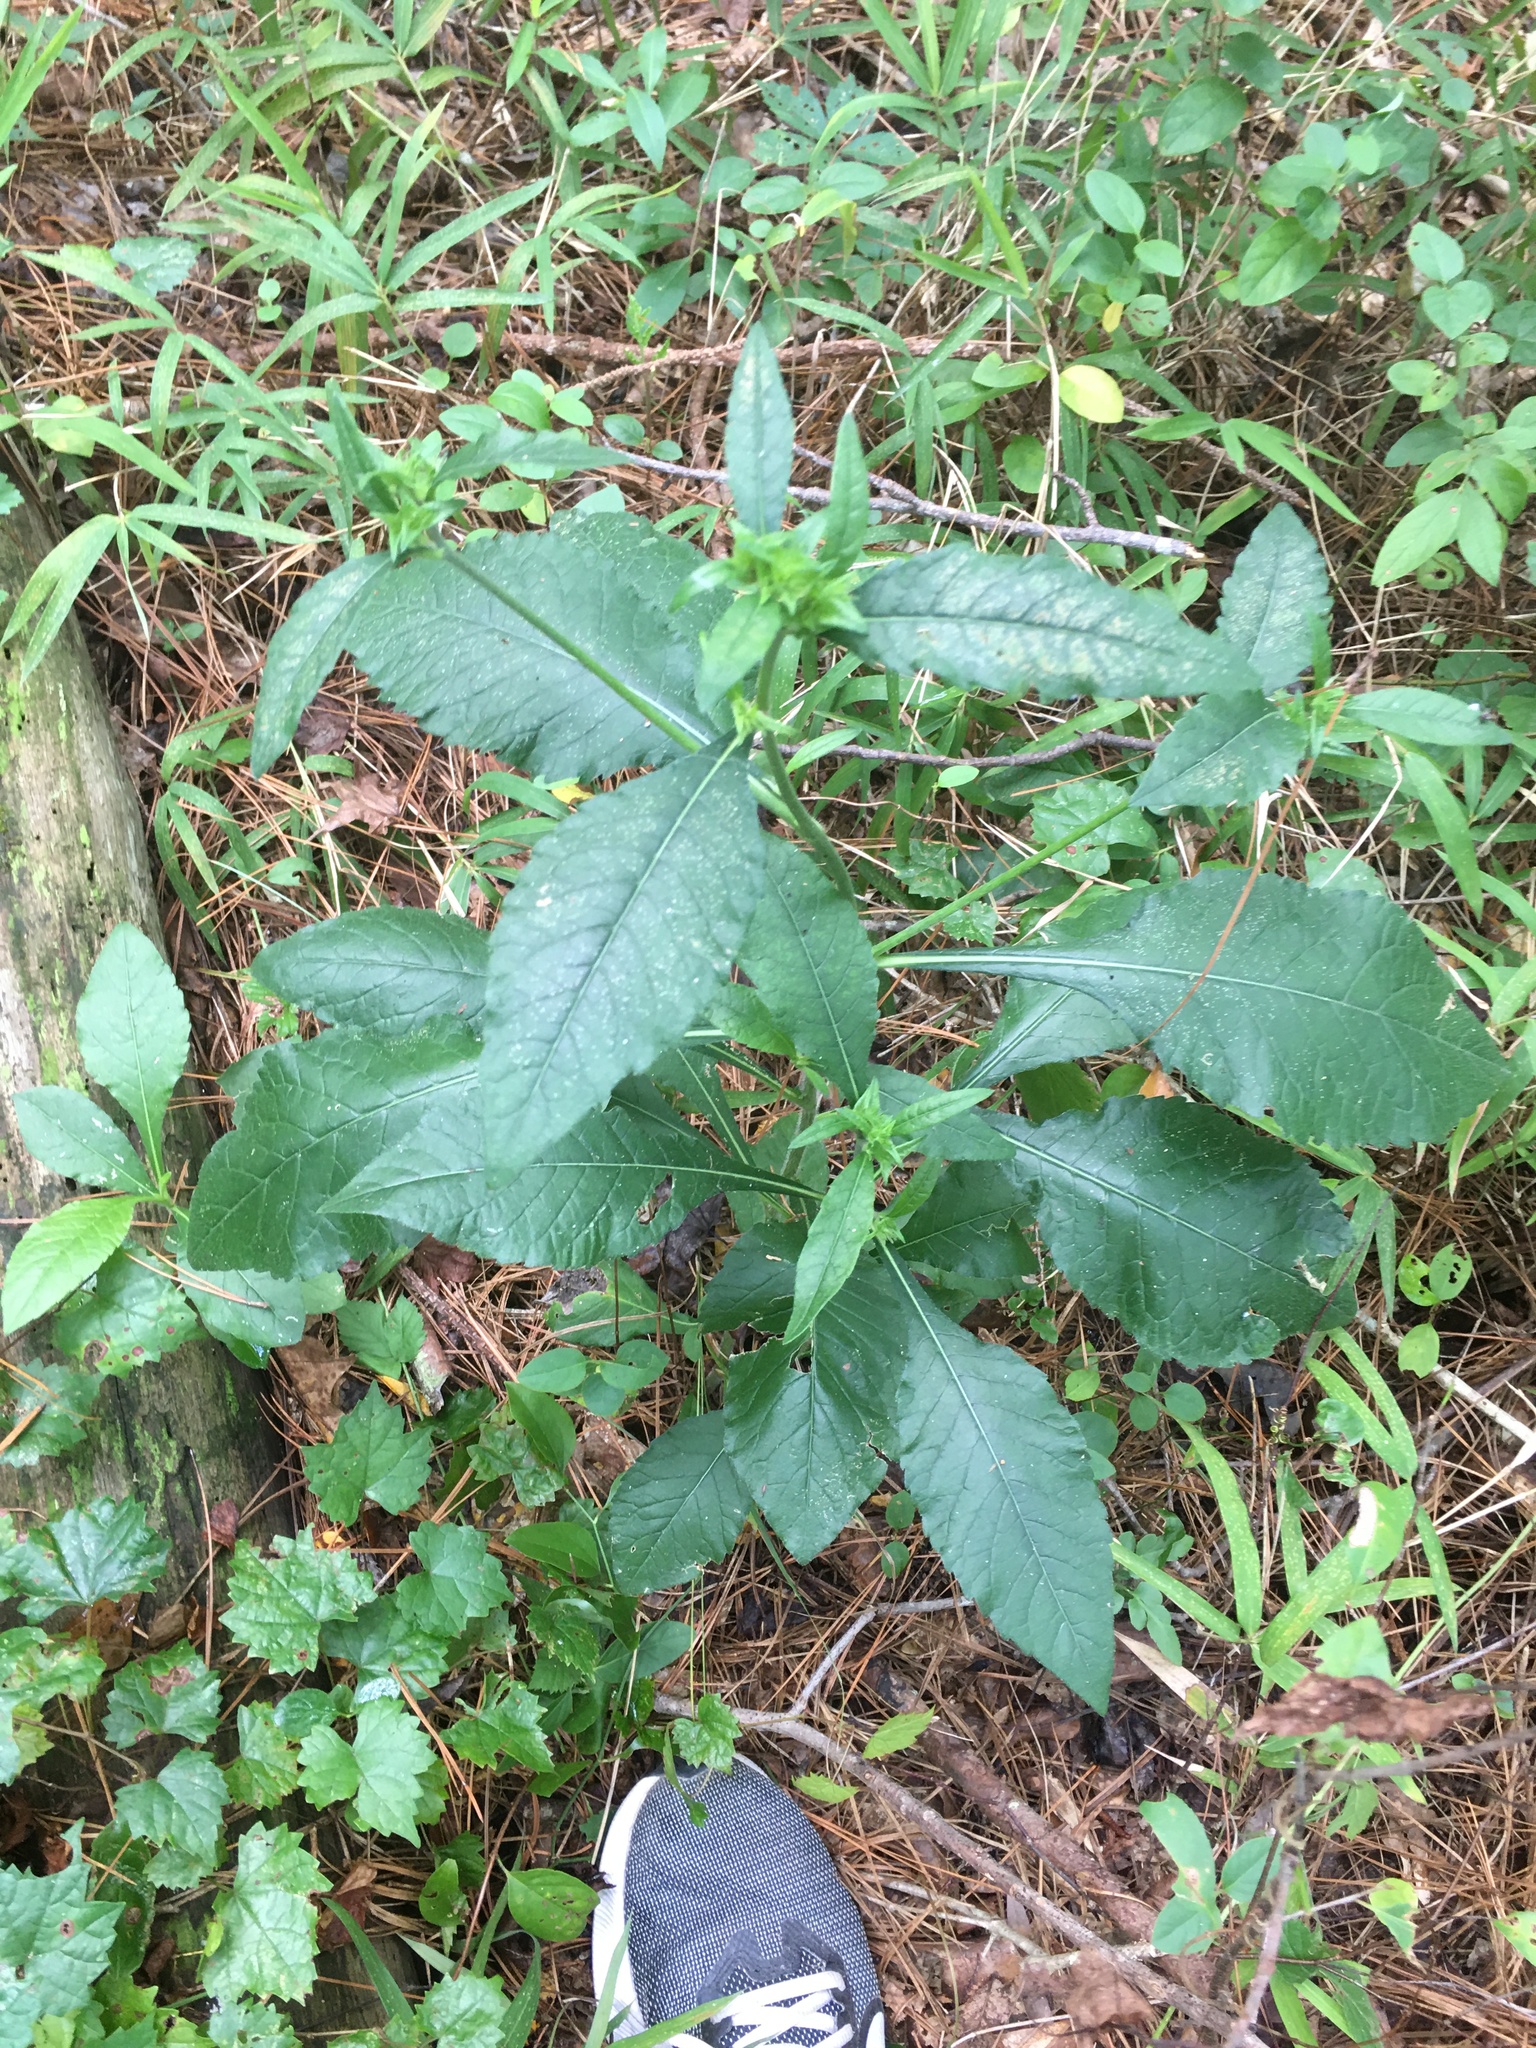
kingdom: Plantae
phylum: Tracheophyta
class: Magnoliopsida
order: Asterales
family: Asteraceae
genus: Elephantopus
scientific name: Elephantopus carolinianus
